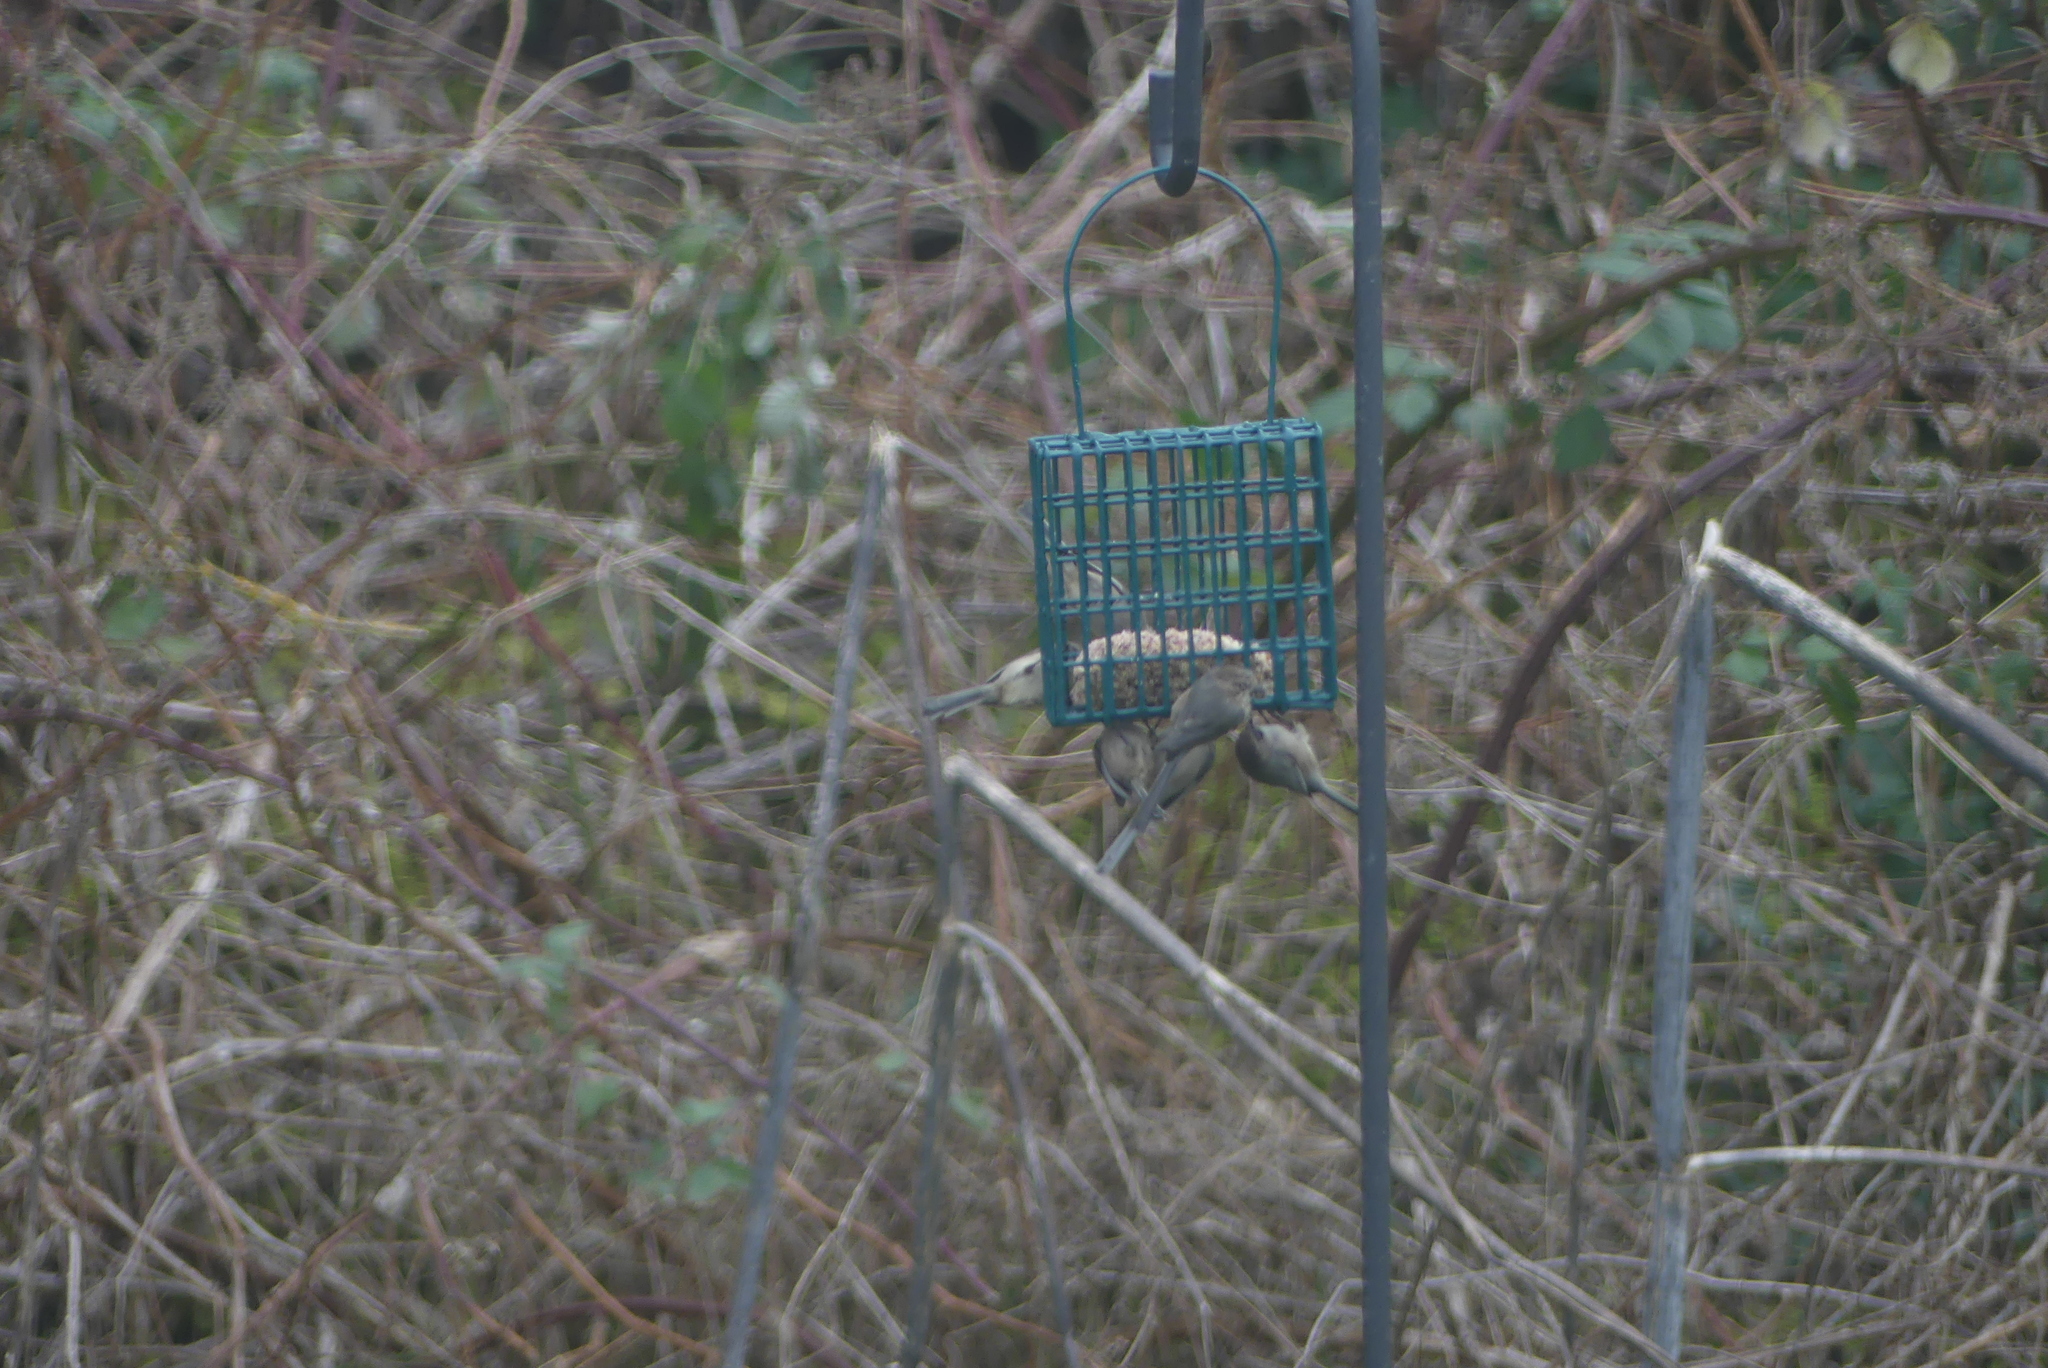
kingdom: Animalia
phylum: Chordata
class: Aves
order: Passeriformes
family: Aegithalidae
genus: Psaltriparus
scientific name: Psaltriparus minimus
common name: American bushtit
